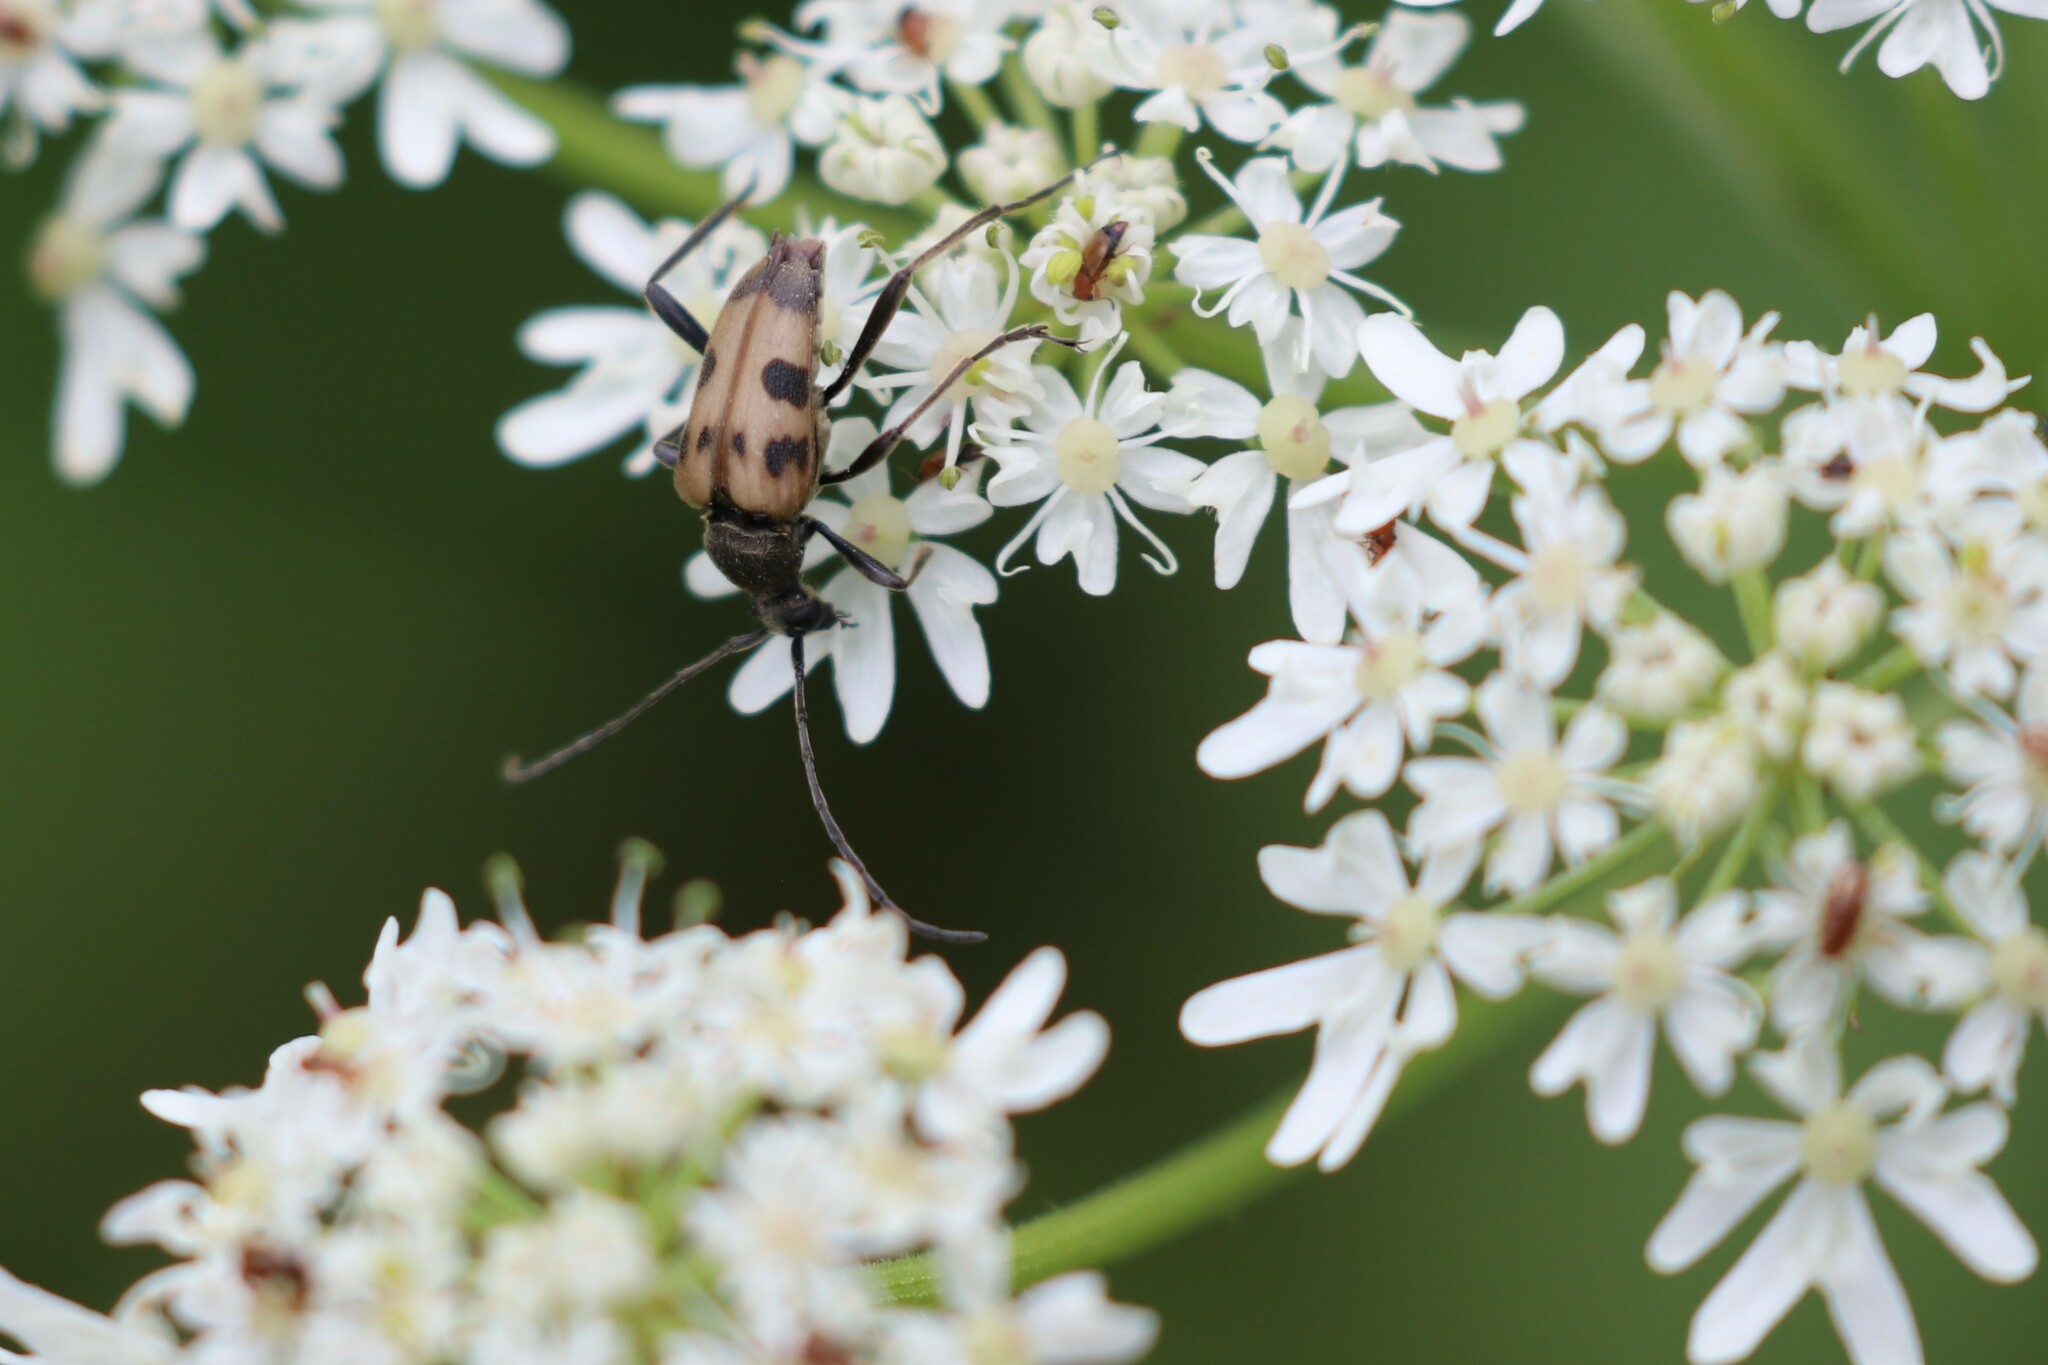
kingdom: Animalia
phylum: Arthropoda
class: Insecta
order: Coleoptera
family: Cerambycidae
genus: Pachytodes
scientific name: Pachytodes cerambyciformis
